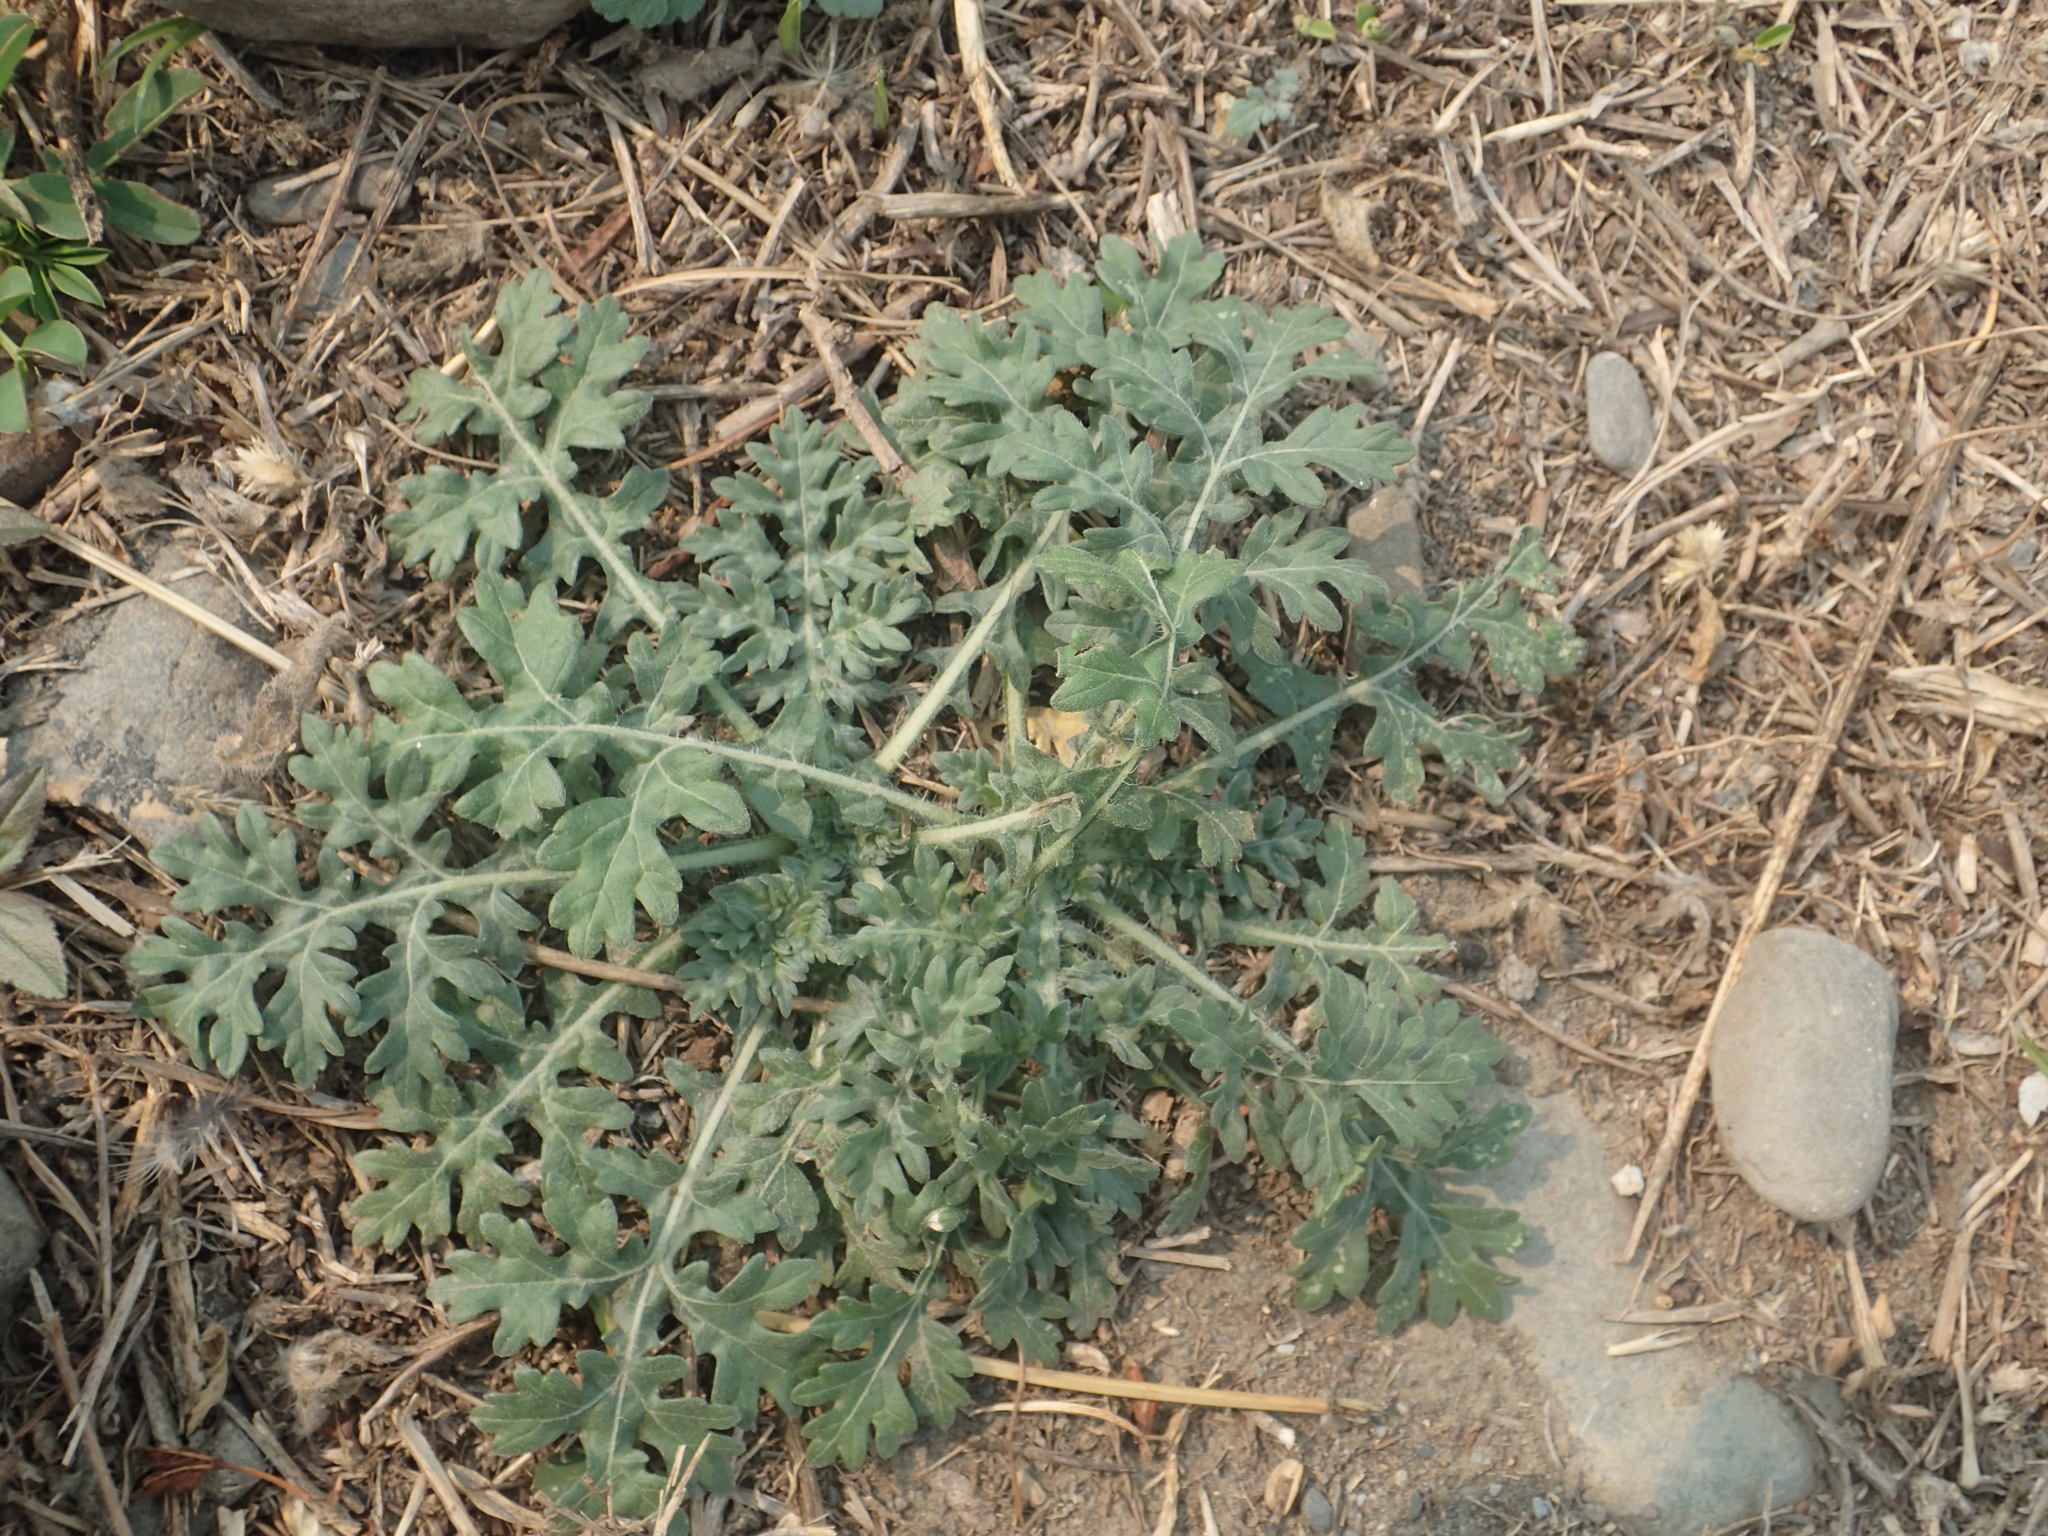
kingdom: Plantae
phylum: Tracheophyta
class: Magnoliopsida
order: Asterales
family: Asteraceae
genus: Parthenium
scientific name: Parthenium hysterophorus
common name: Santa maria feverfew
